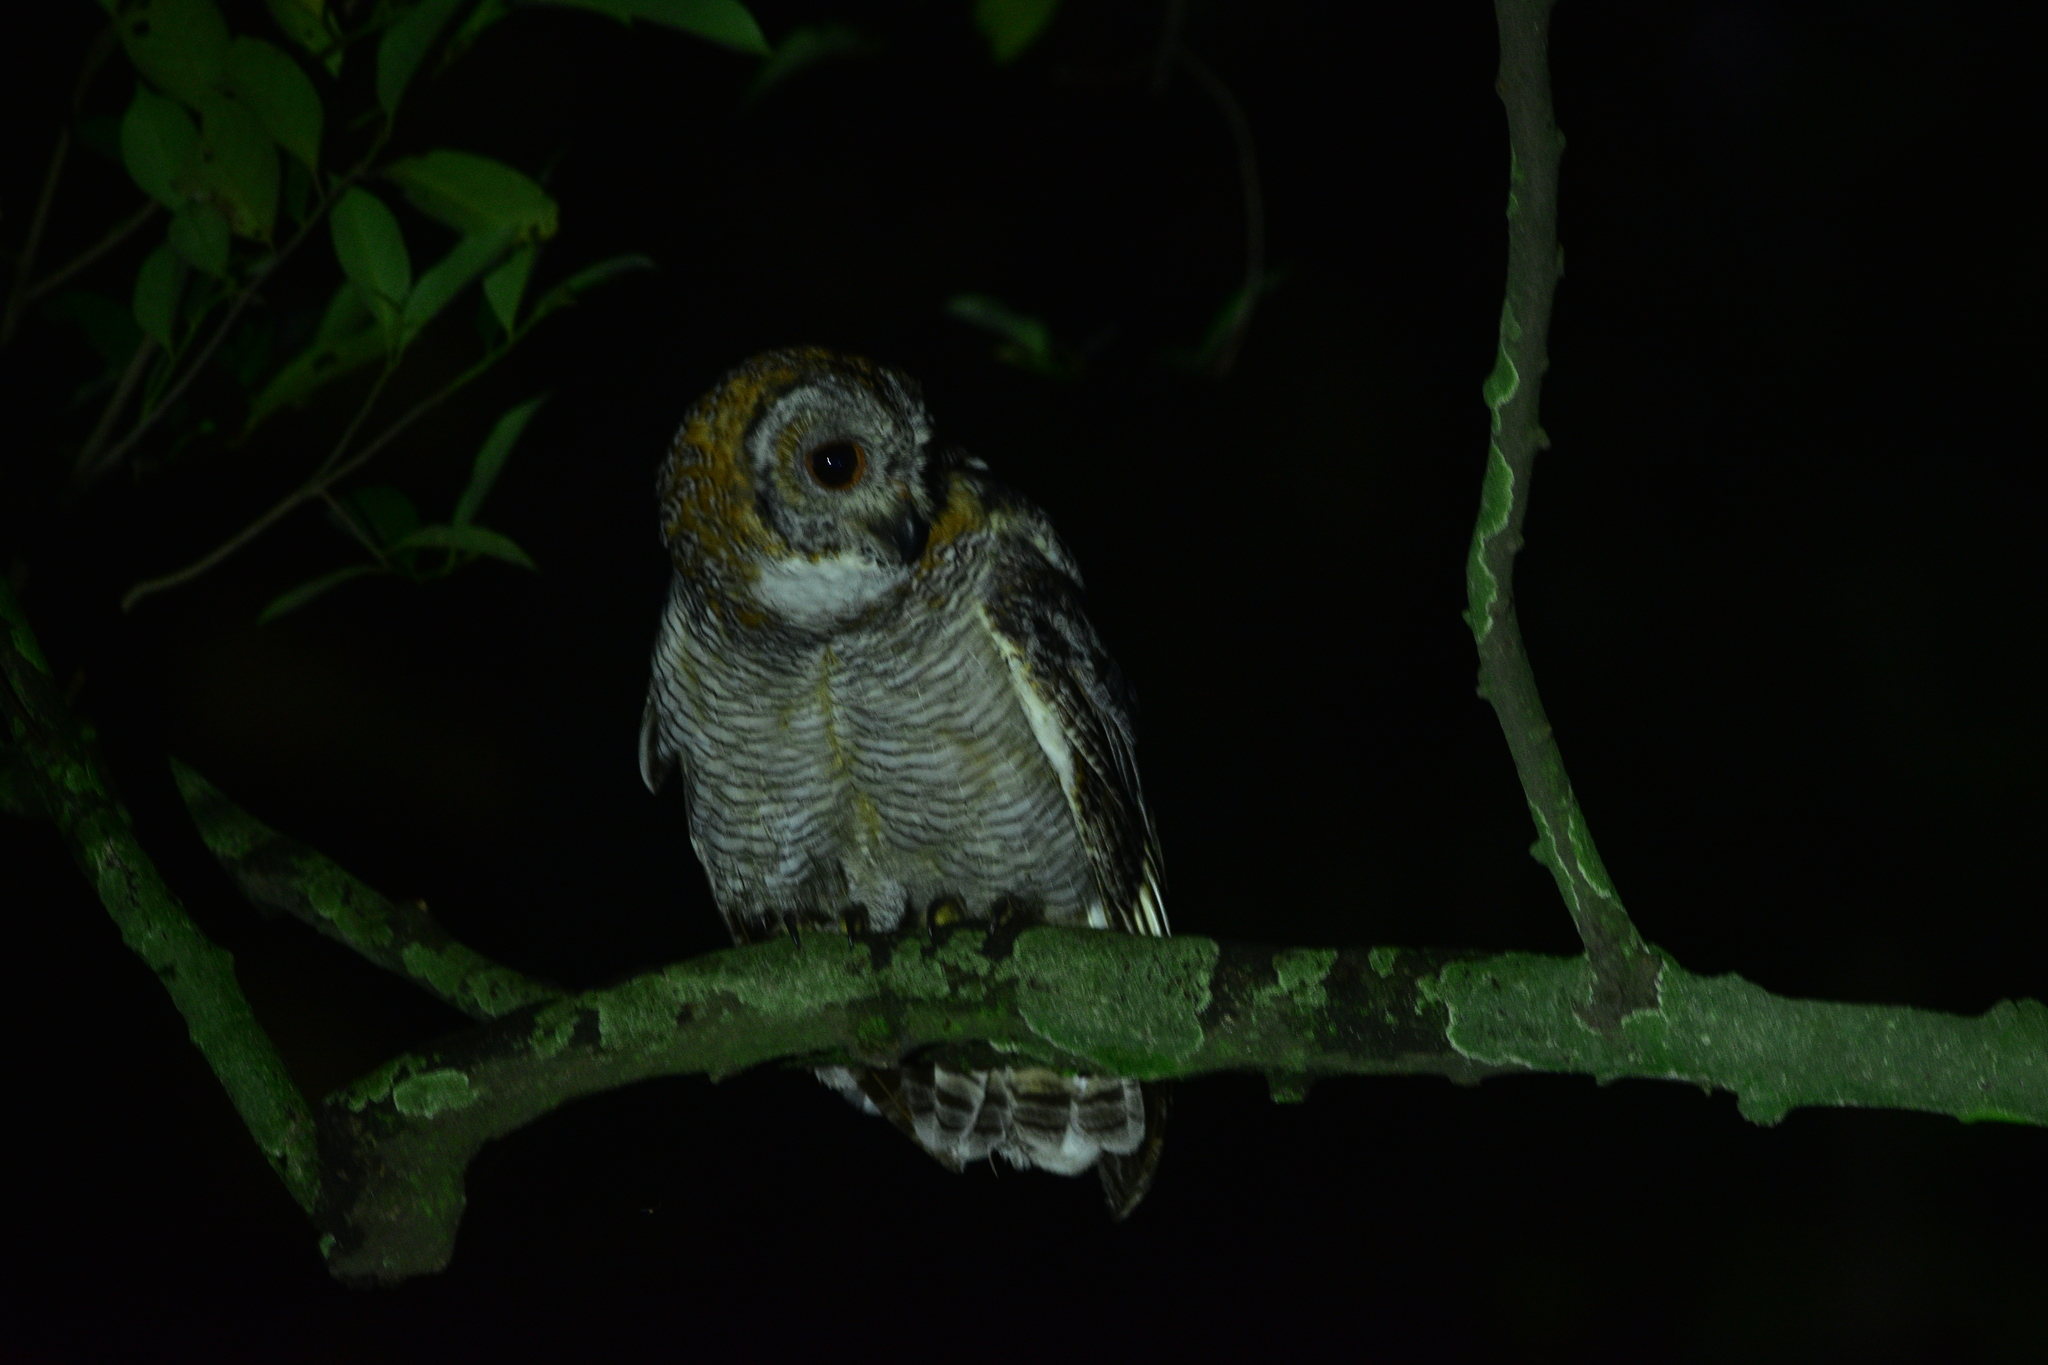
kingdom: Animalia
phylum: Chordata
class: Aves
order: Strigiformes
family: Strigidae
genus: Strix
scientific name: Strix ocellata
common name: Mottled wood owl
